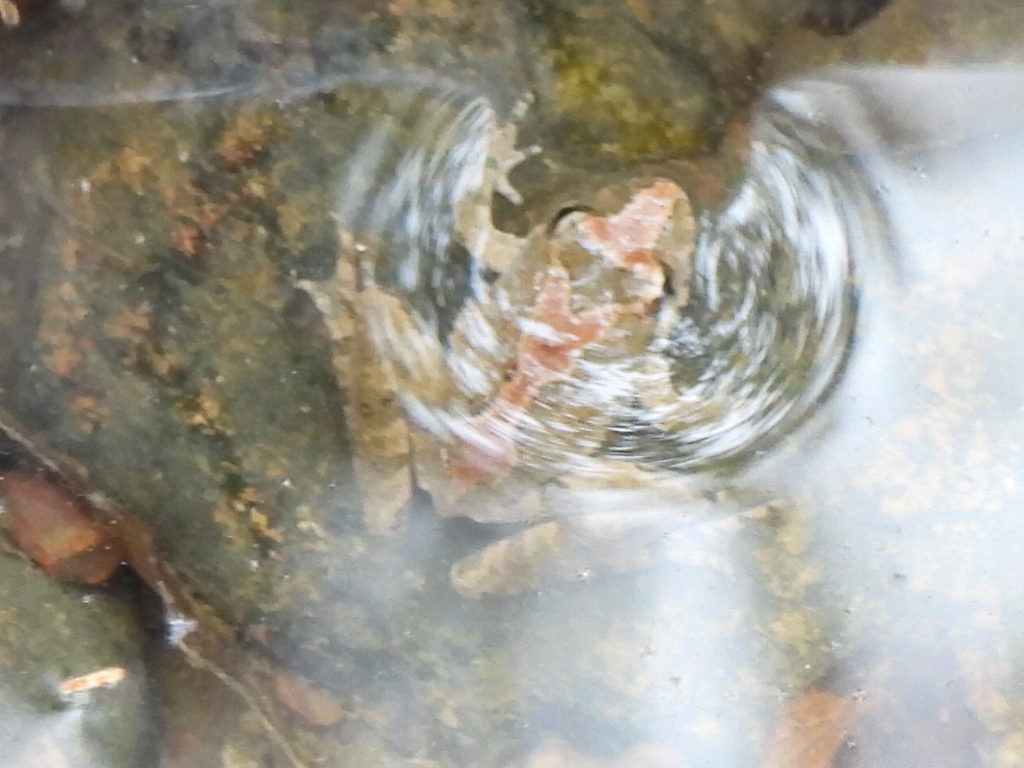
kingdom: Animalia
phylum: Chordata
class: Amphibia
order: Anura
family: Hylidae
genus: Acris
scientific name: Acris blanchardi
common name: Blanchard's cricket frog
